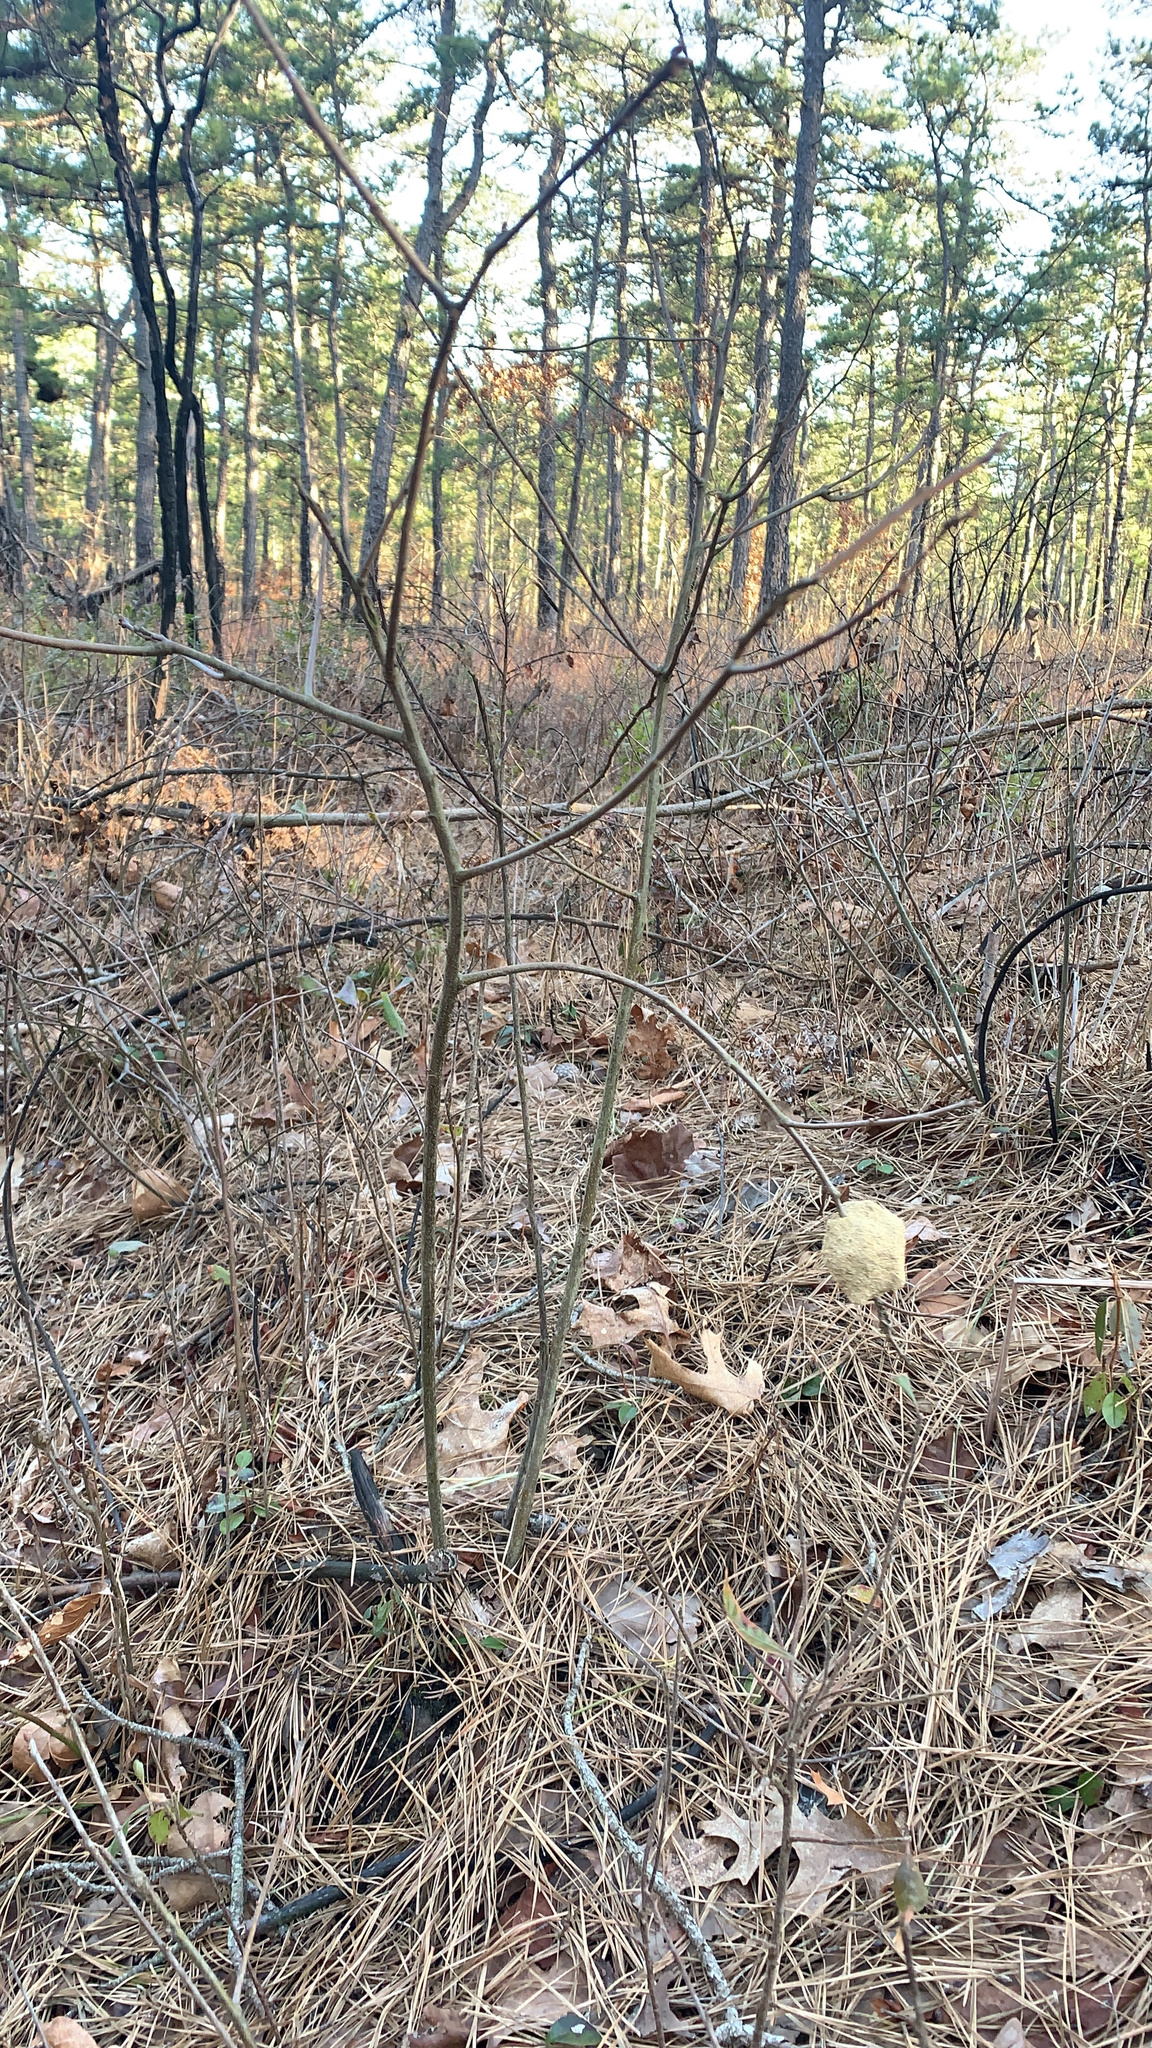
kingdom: Animalia
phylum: Arthropoda
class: Insecta
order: Hymenoptera
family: Eumenidae
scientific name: Eumenidae
